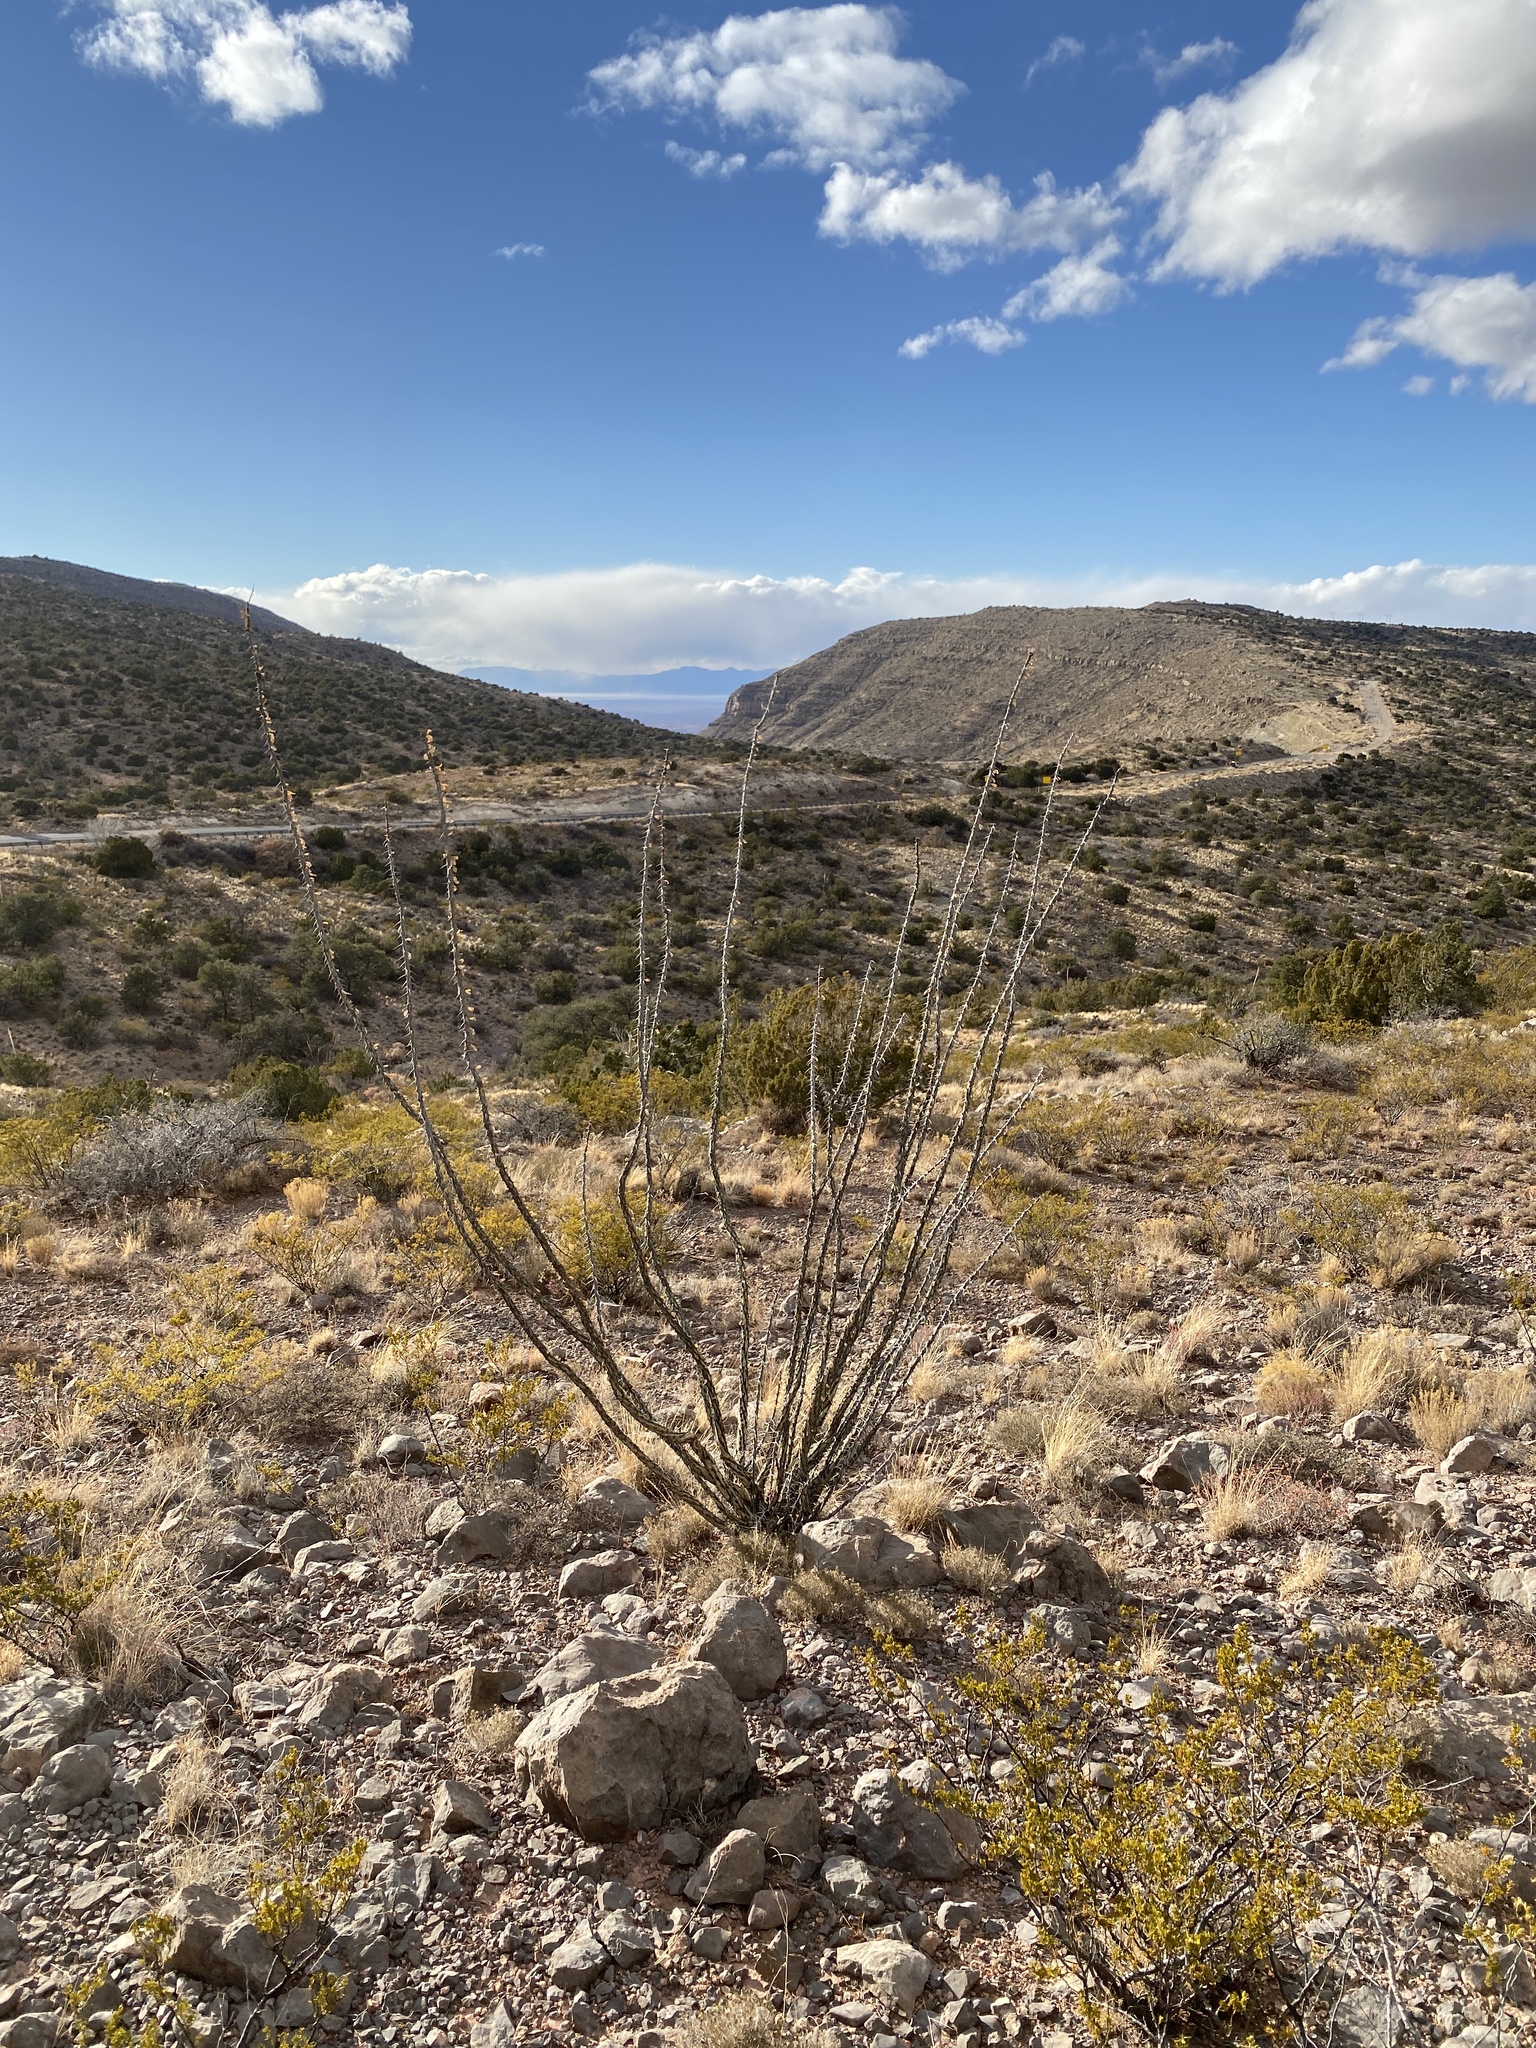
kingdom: Plantae
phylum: Tracheophyta
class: Magnoliopsida
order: Ericales
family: Fouquieriaceae
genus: Fouquieria
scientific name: Fouquieria splendens
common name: Vine-cactus
